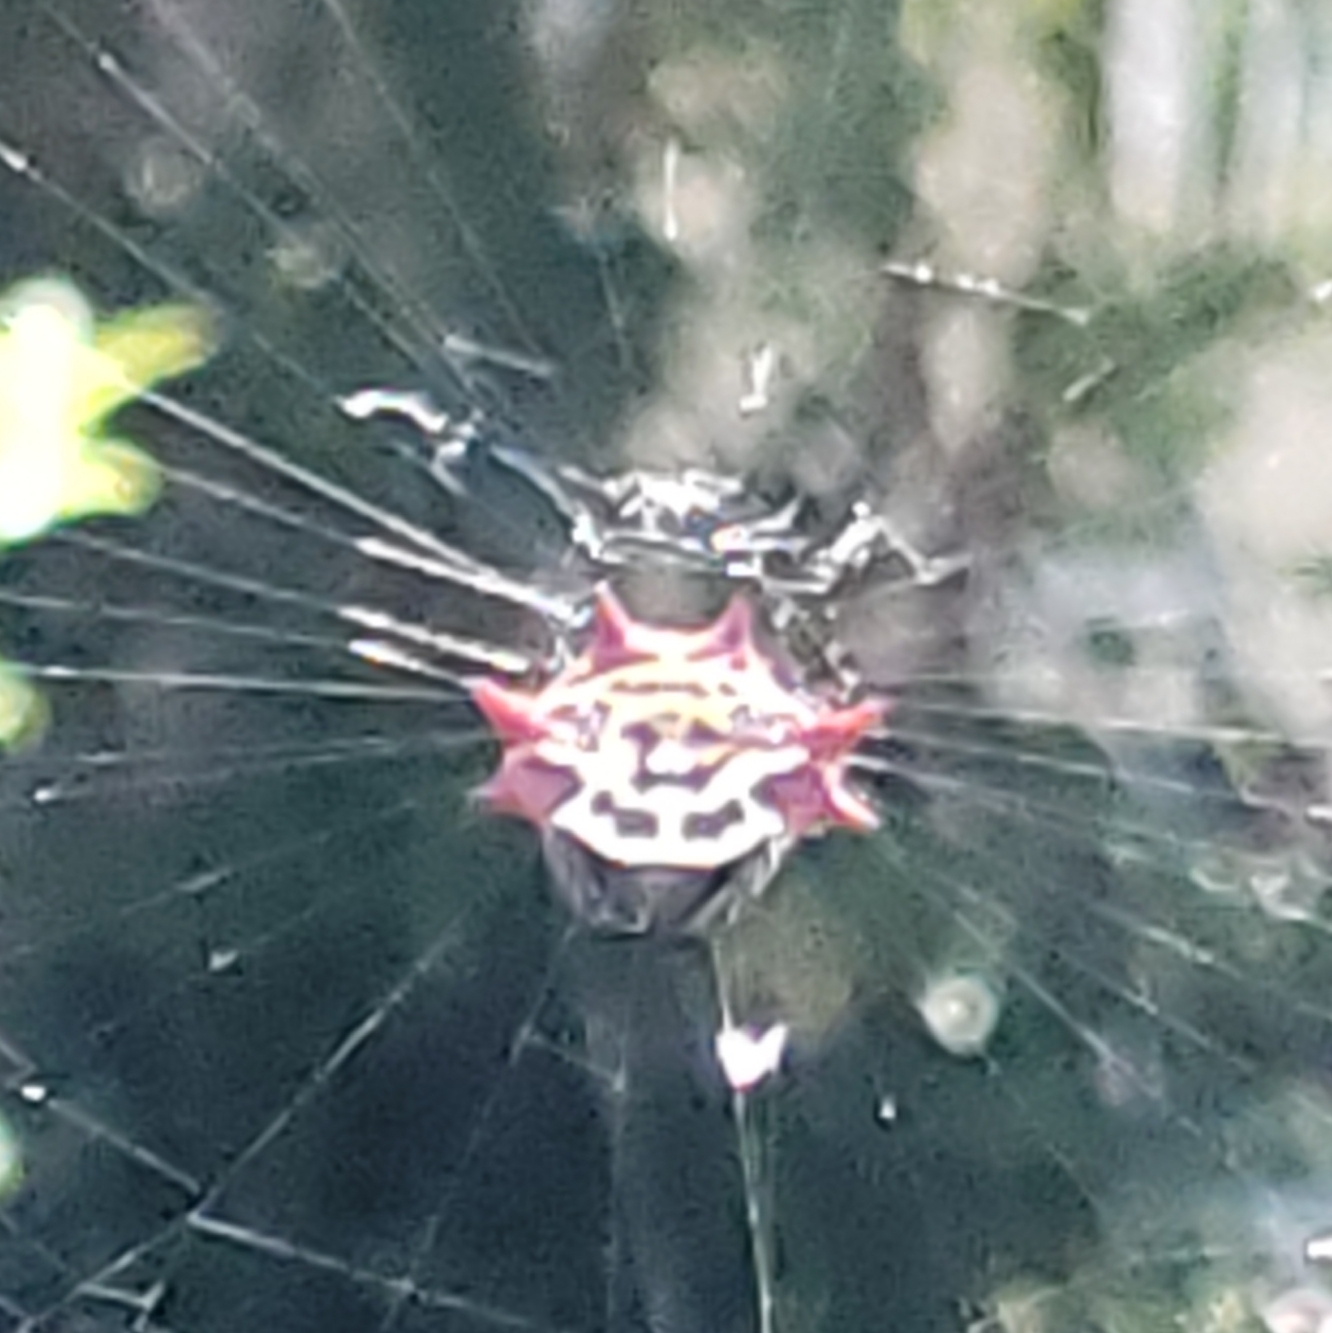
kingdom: Animalia
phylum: Arthropoda
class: Arachnida
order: Araneae
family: Araneidae
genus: Gasteracantha
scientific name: Gasteracantha cancriformis
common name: Orb weavers
